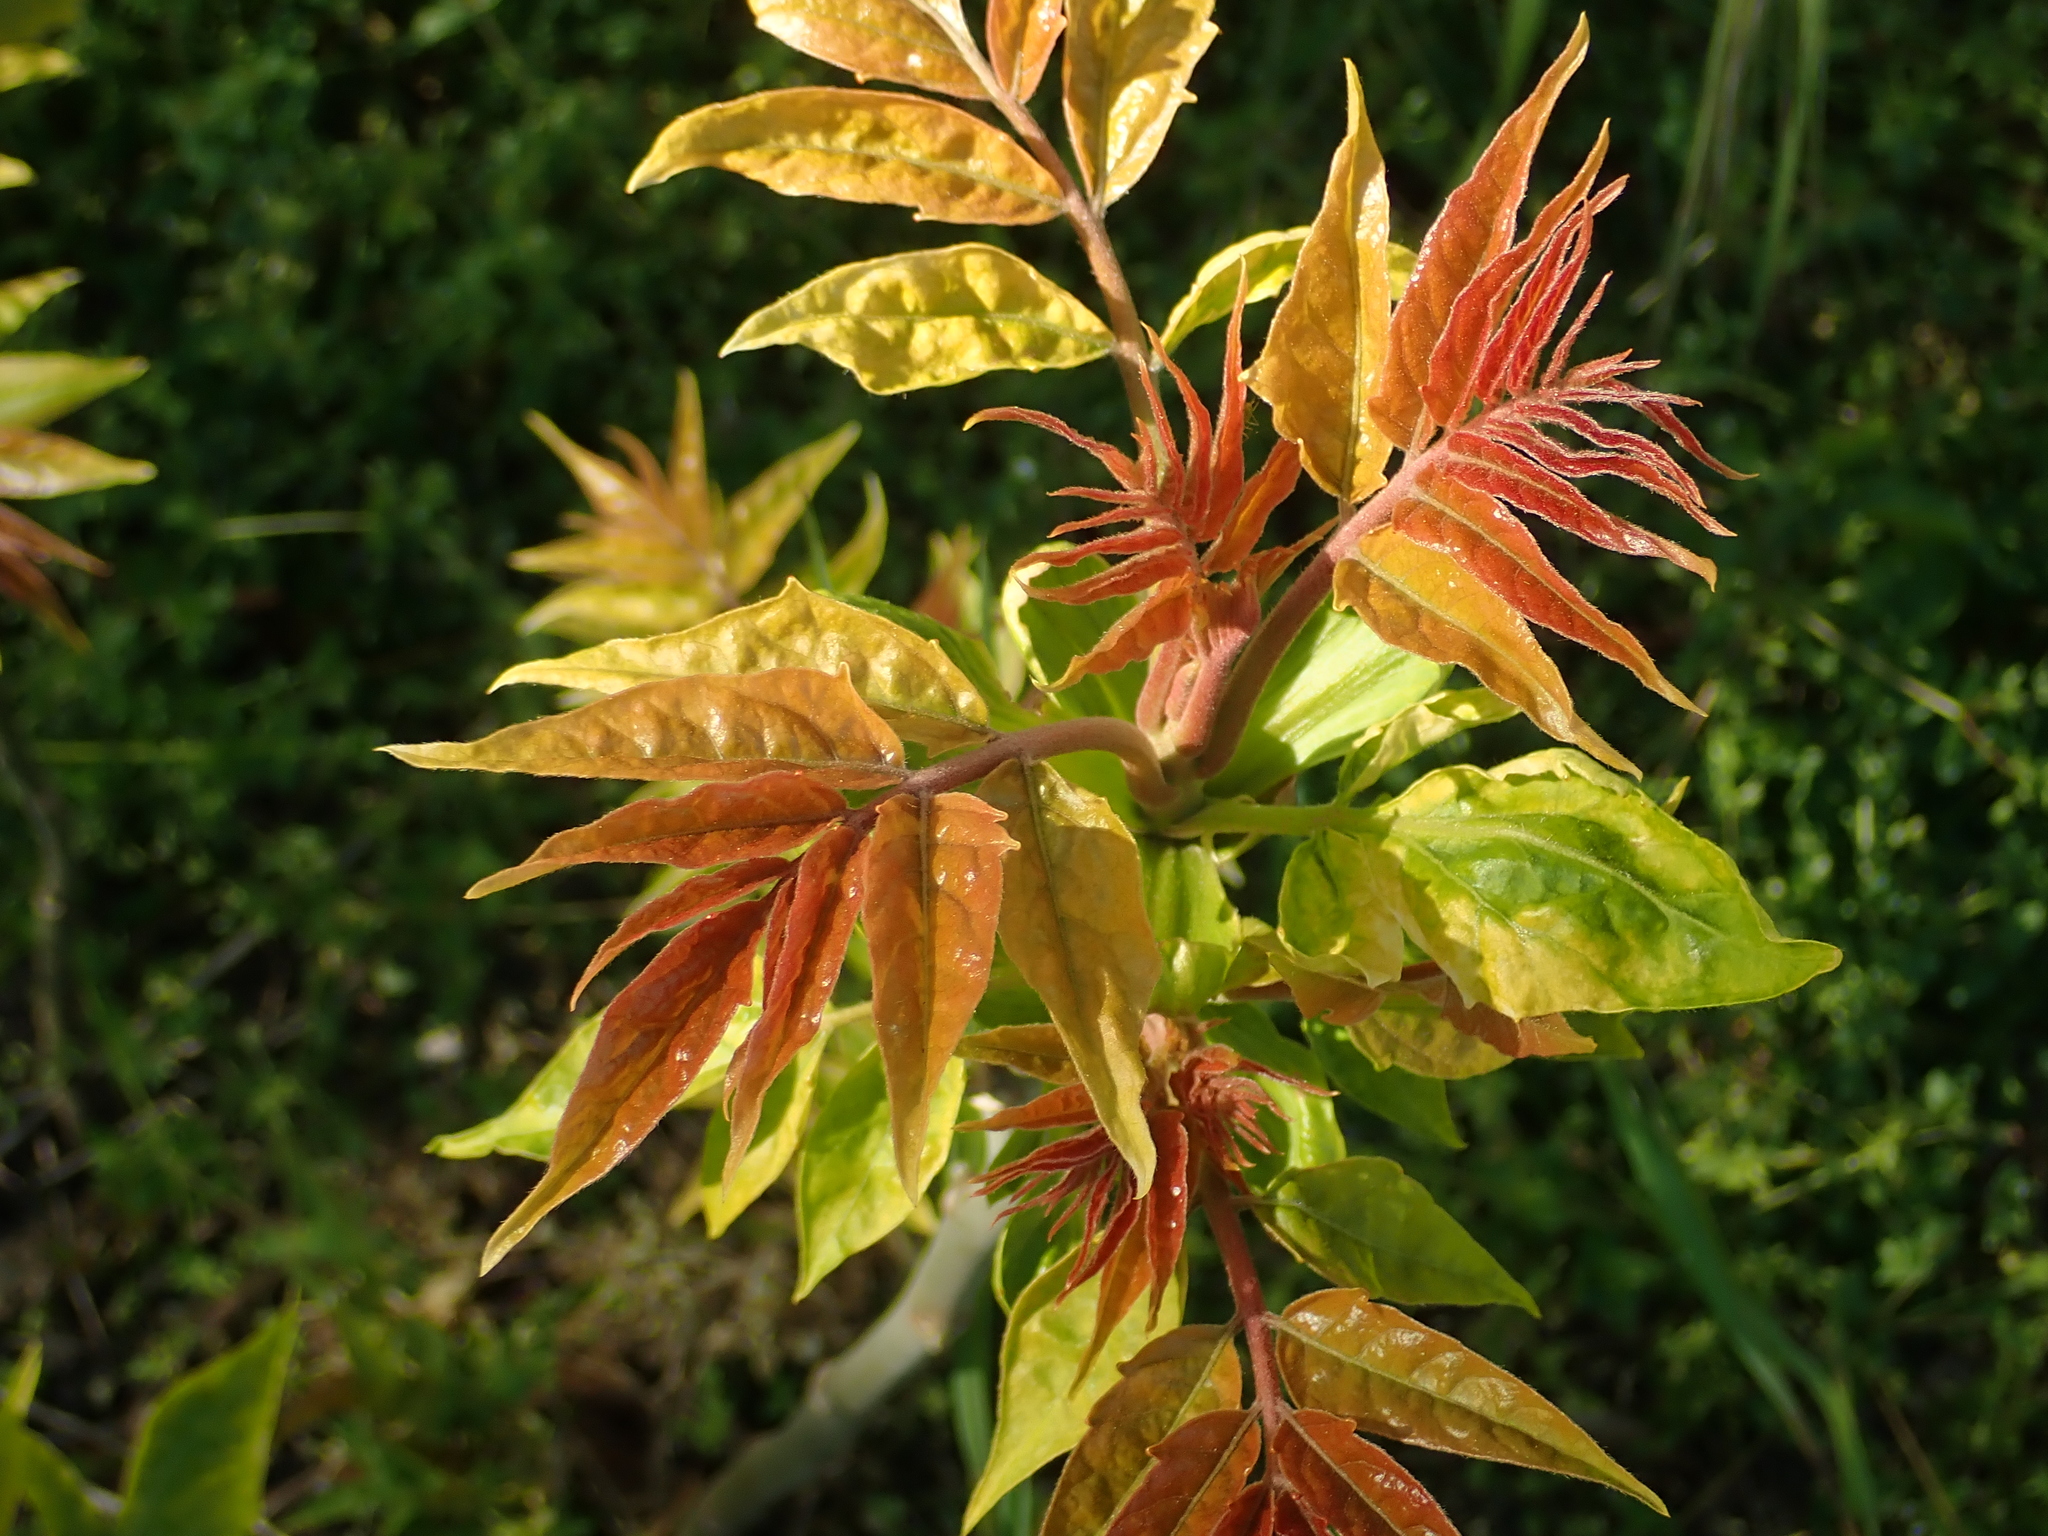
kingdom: Plantae
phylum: Tracheophyta
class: Magnoliopsida
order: Sapindales
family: Simaroubaceae
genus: Ailanthus
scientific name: Ailanthus altissima
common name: Tree-of-heaven
